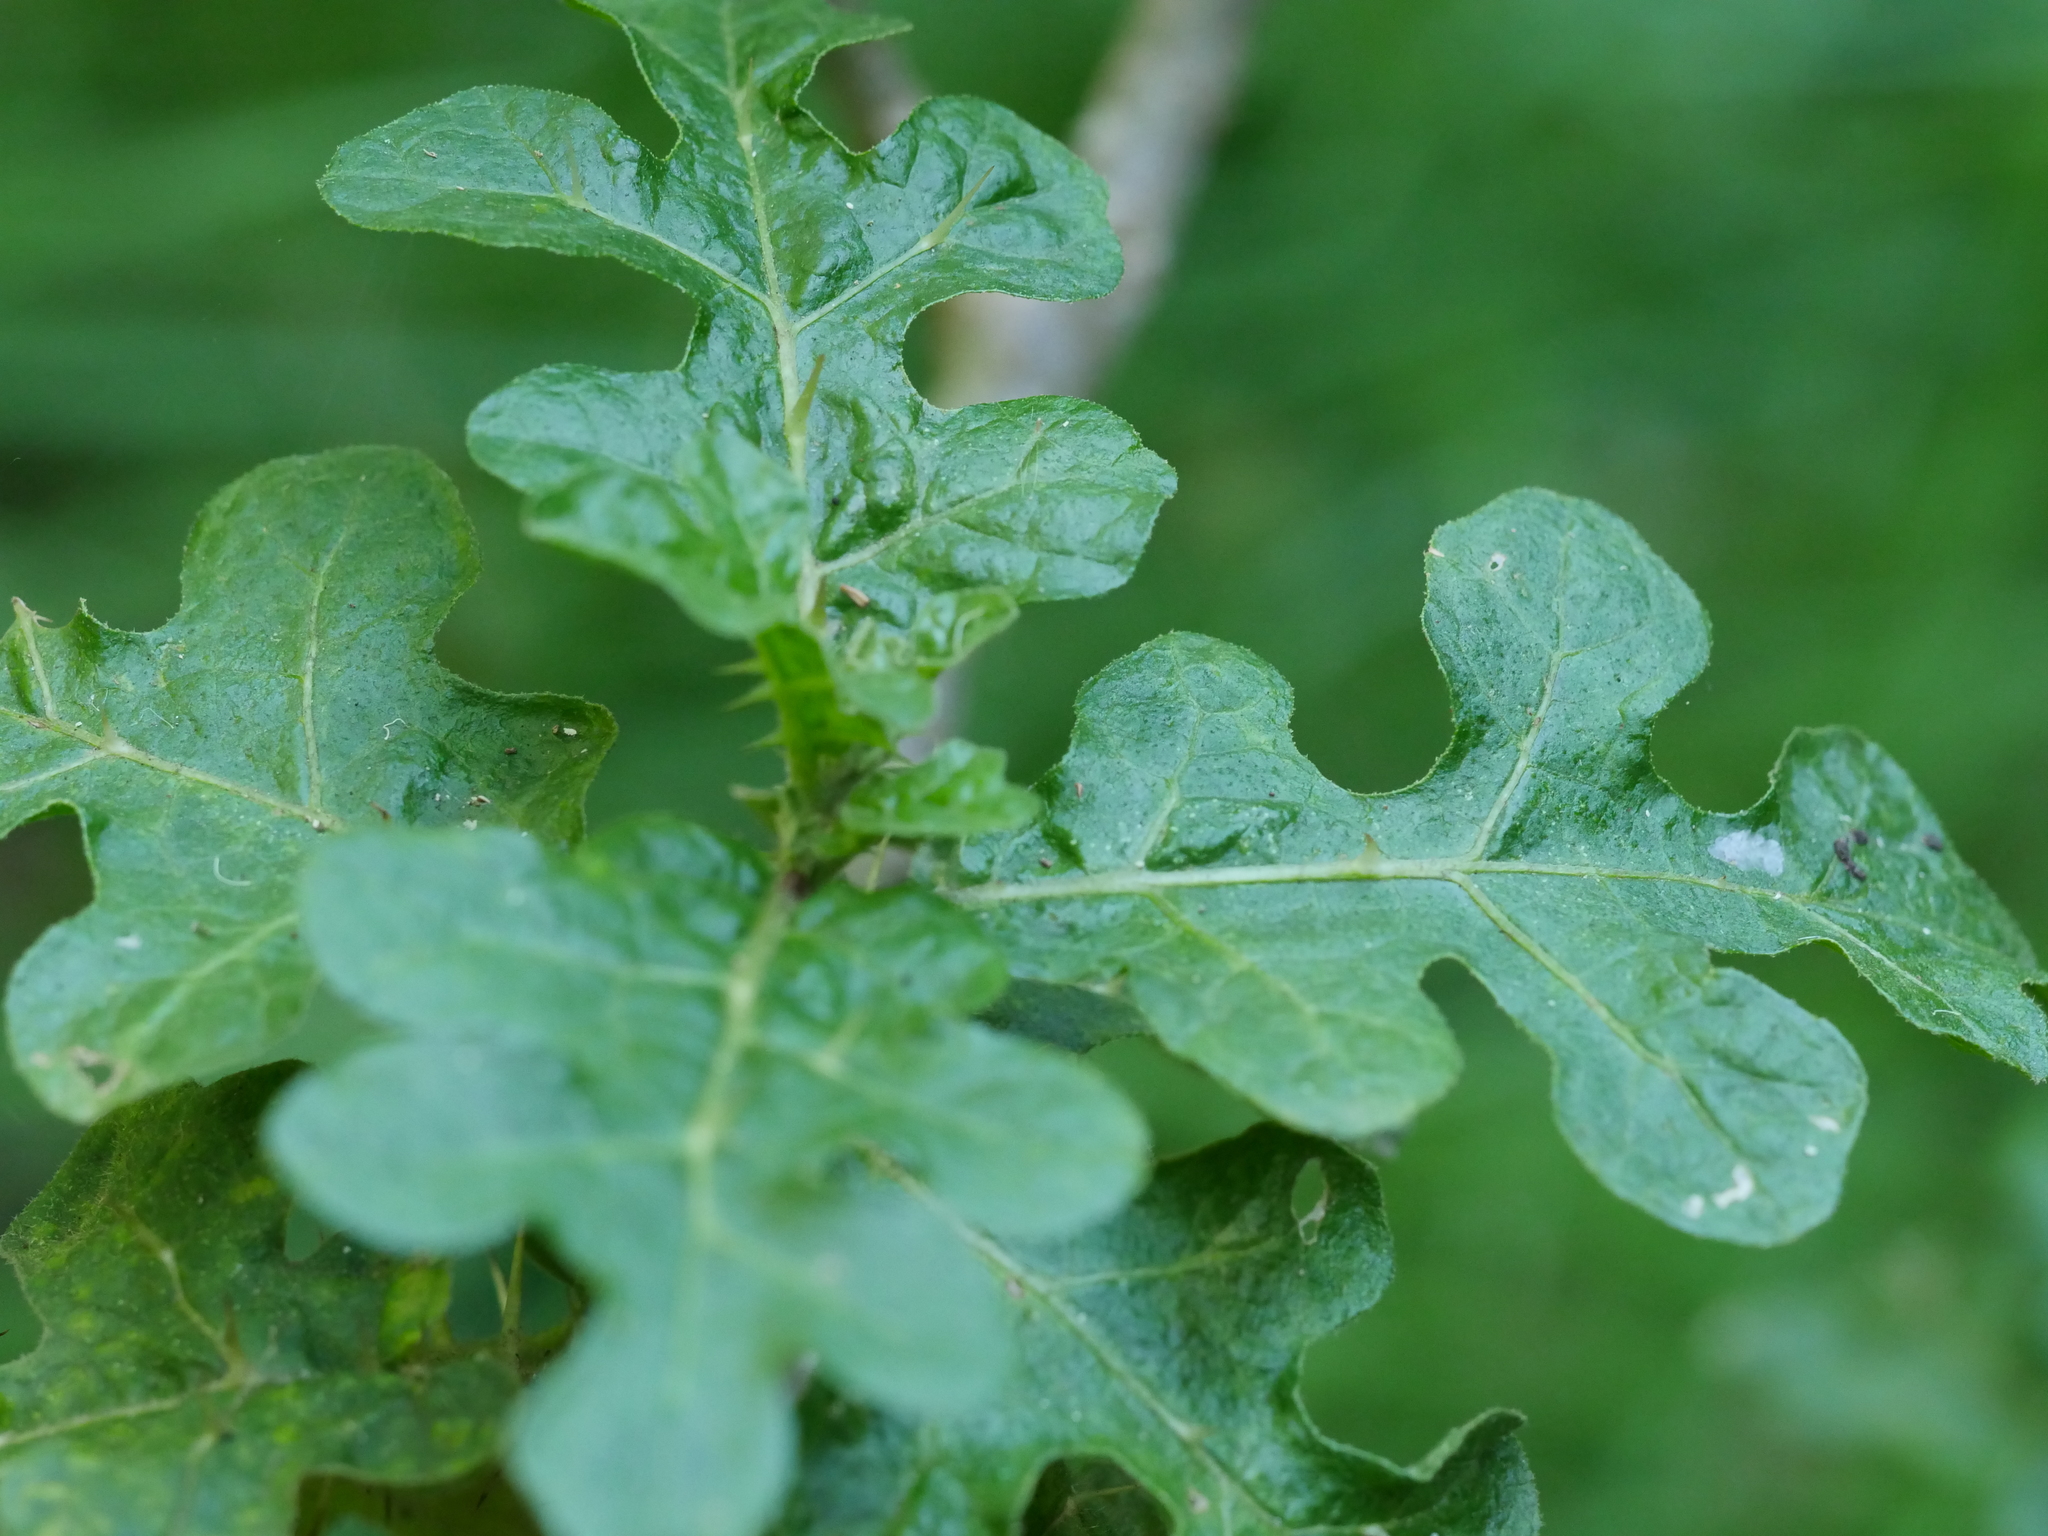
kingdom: Plantae
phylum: Tracheophyta
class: Magnoliopsida
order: Solanales
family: Solanaceae
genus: Solanum
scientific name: Solanum linnaeanum
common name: Nightshade
